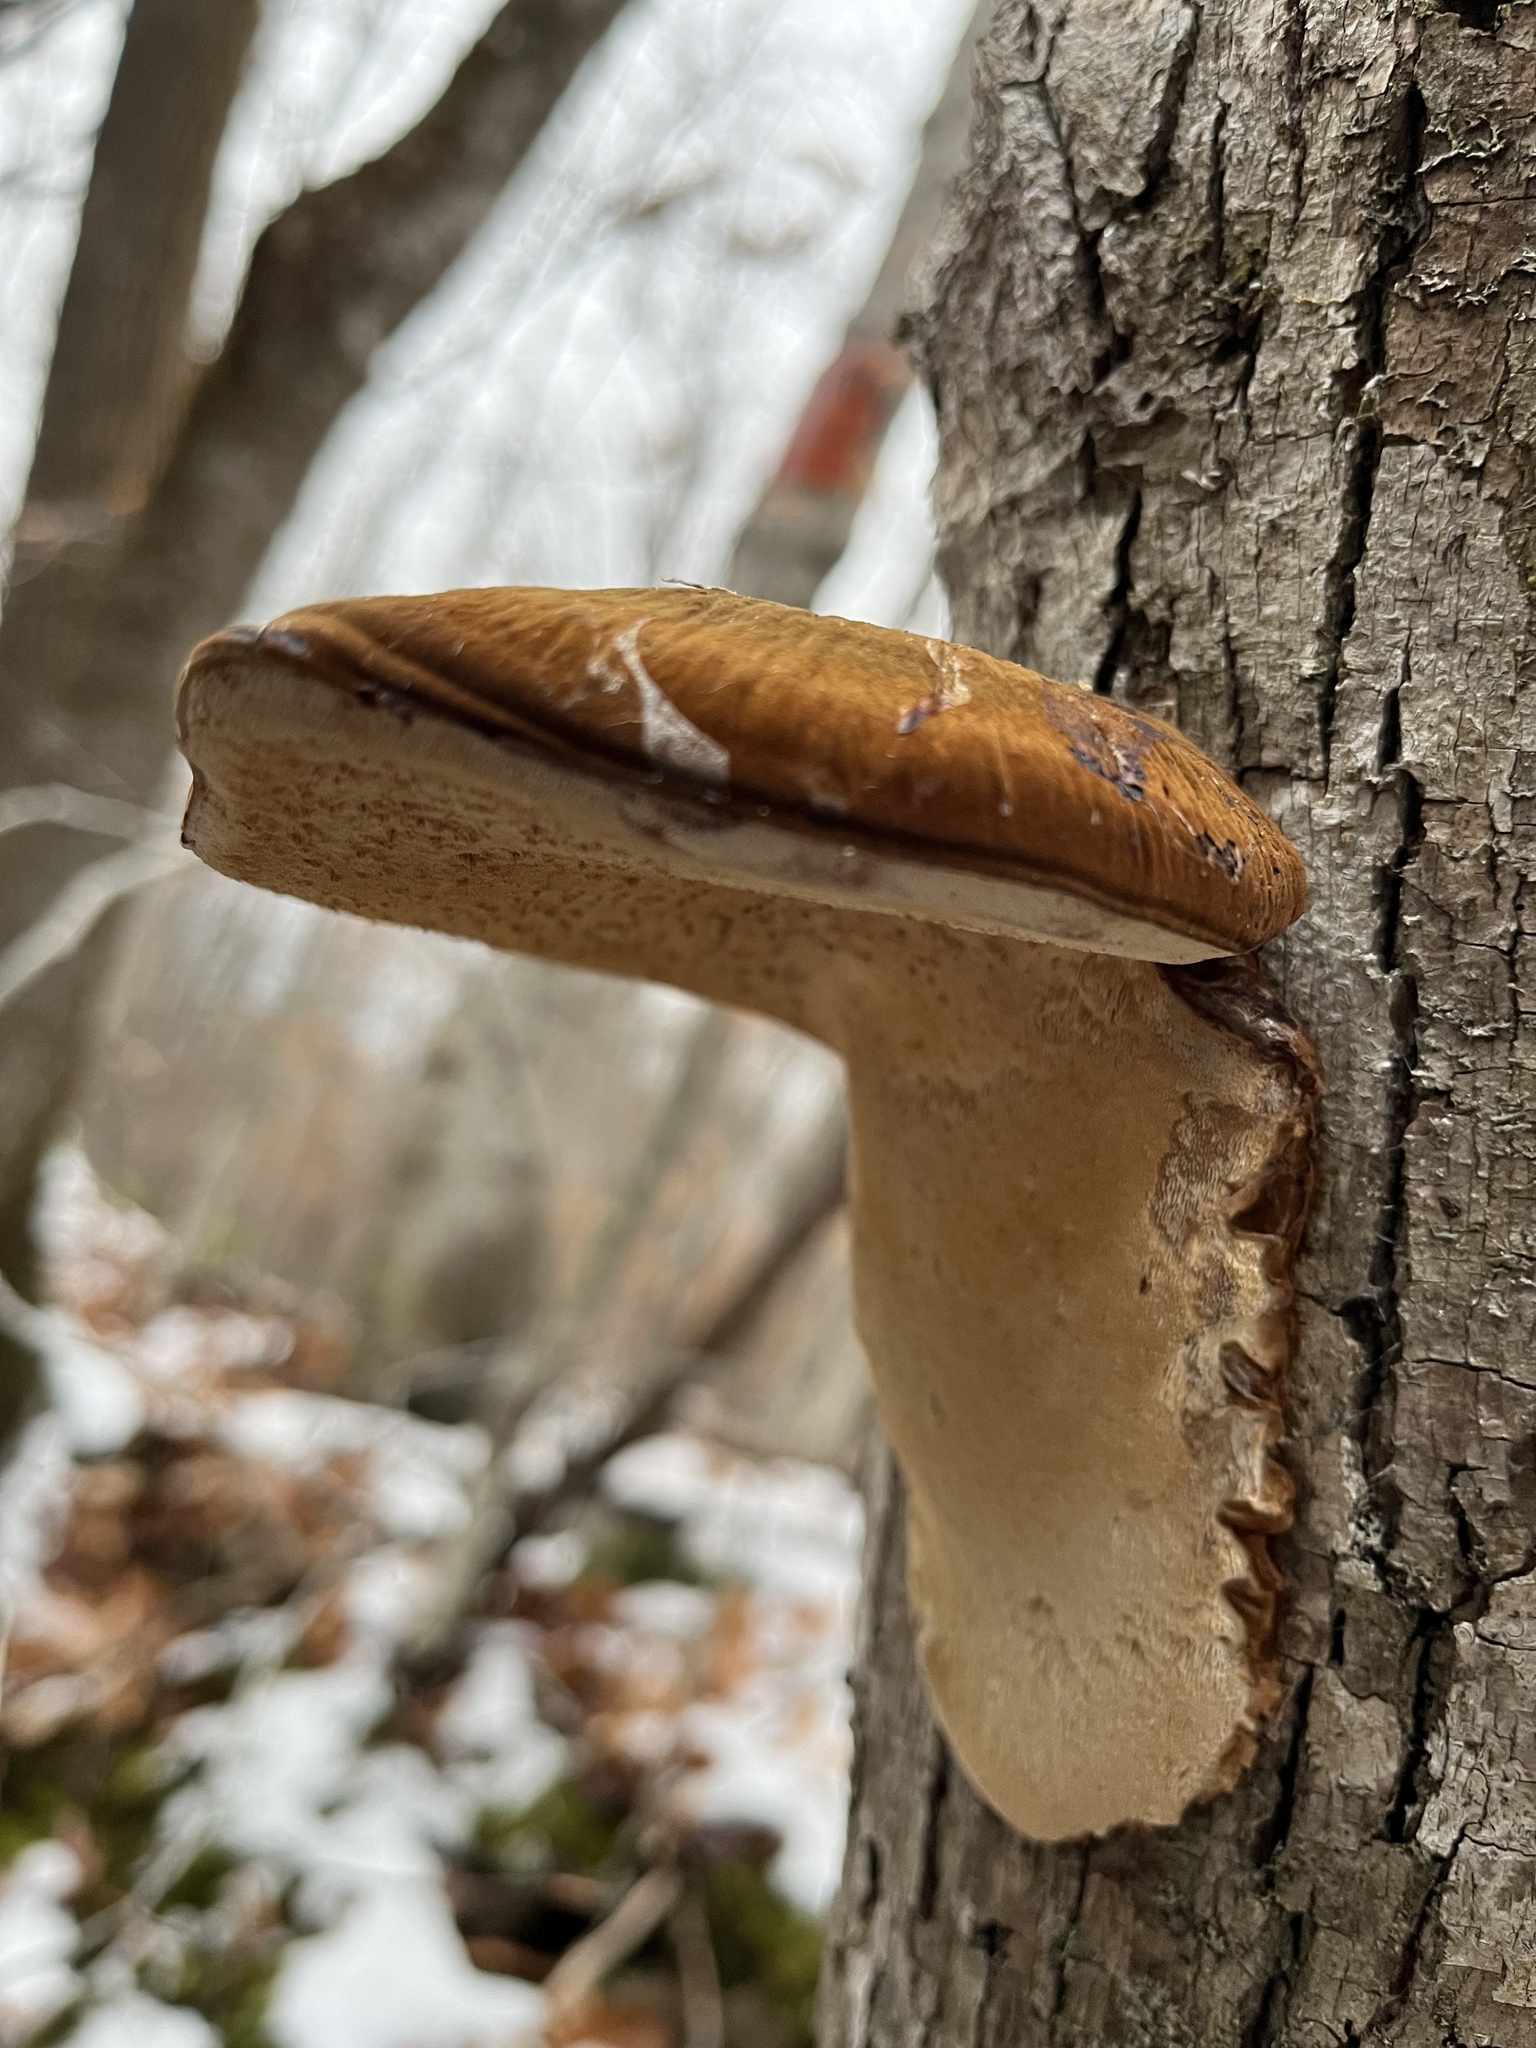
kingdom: Fungi
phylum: Basidiomycota
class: Agaricomycetes
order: Polyporales
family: Ischnodermataceae
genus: Ischnoderma
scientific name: Ischnoderma resinosum
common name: Resinous polypore
